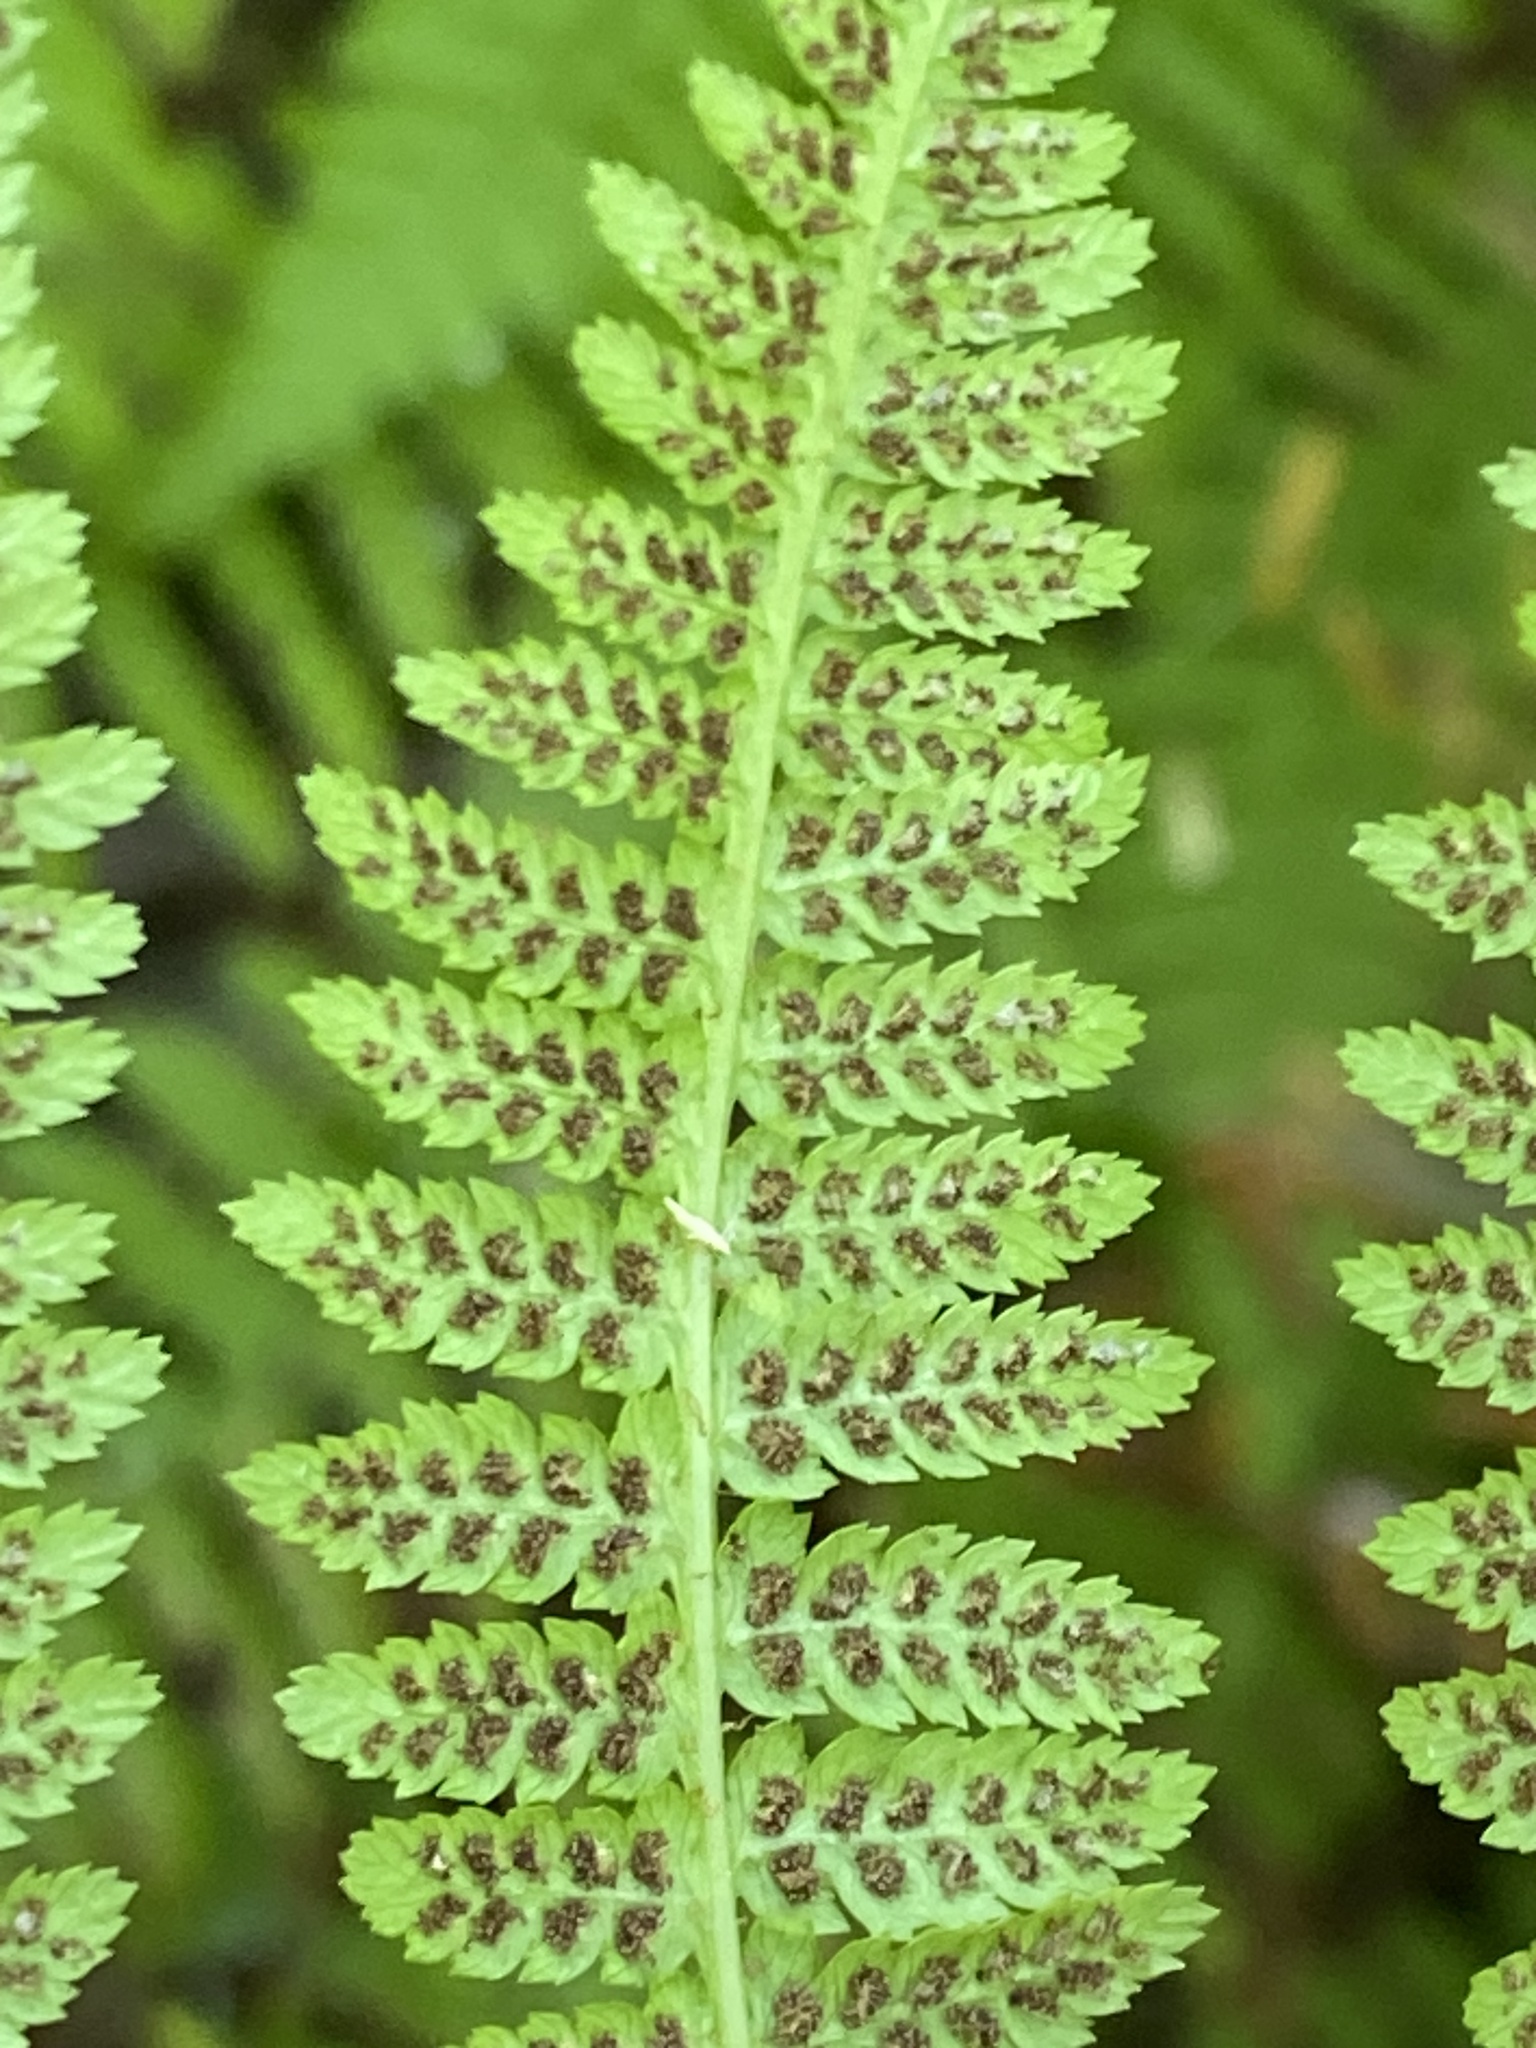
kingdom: Plantae
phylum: Tracheophyta
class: Polypodiopsida
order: Polypodiales
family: Athyriaceae
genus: Athyrium
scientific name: Athyrium cyclosorum
